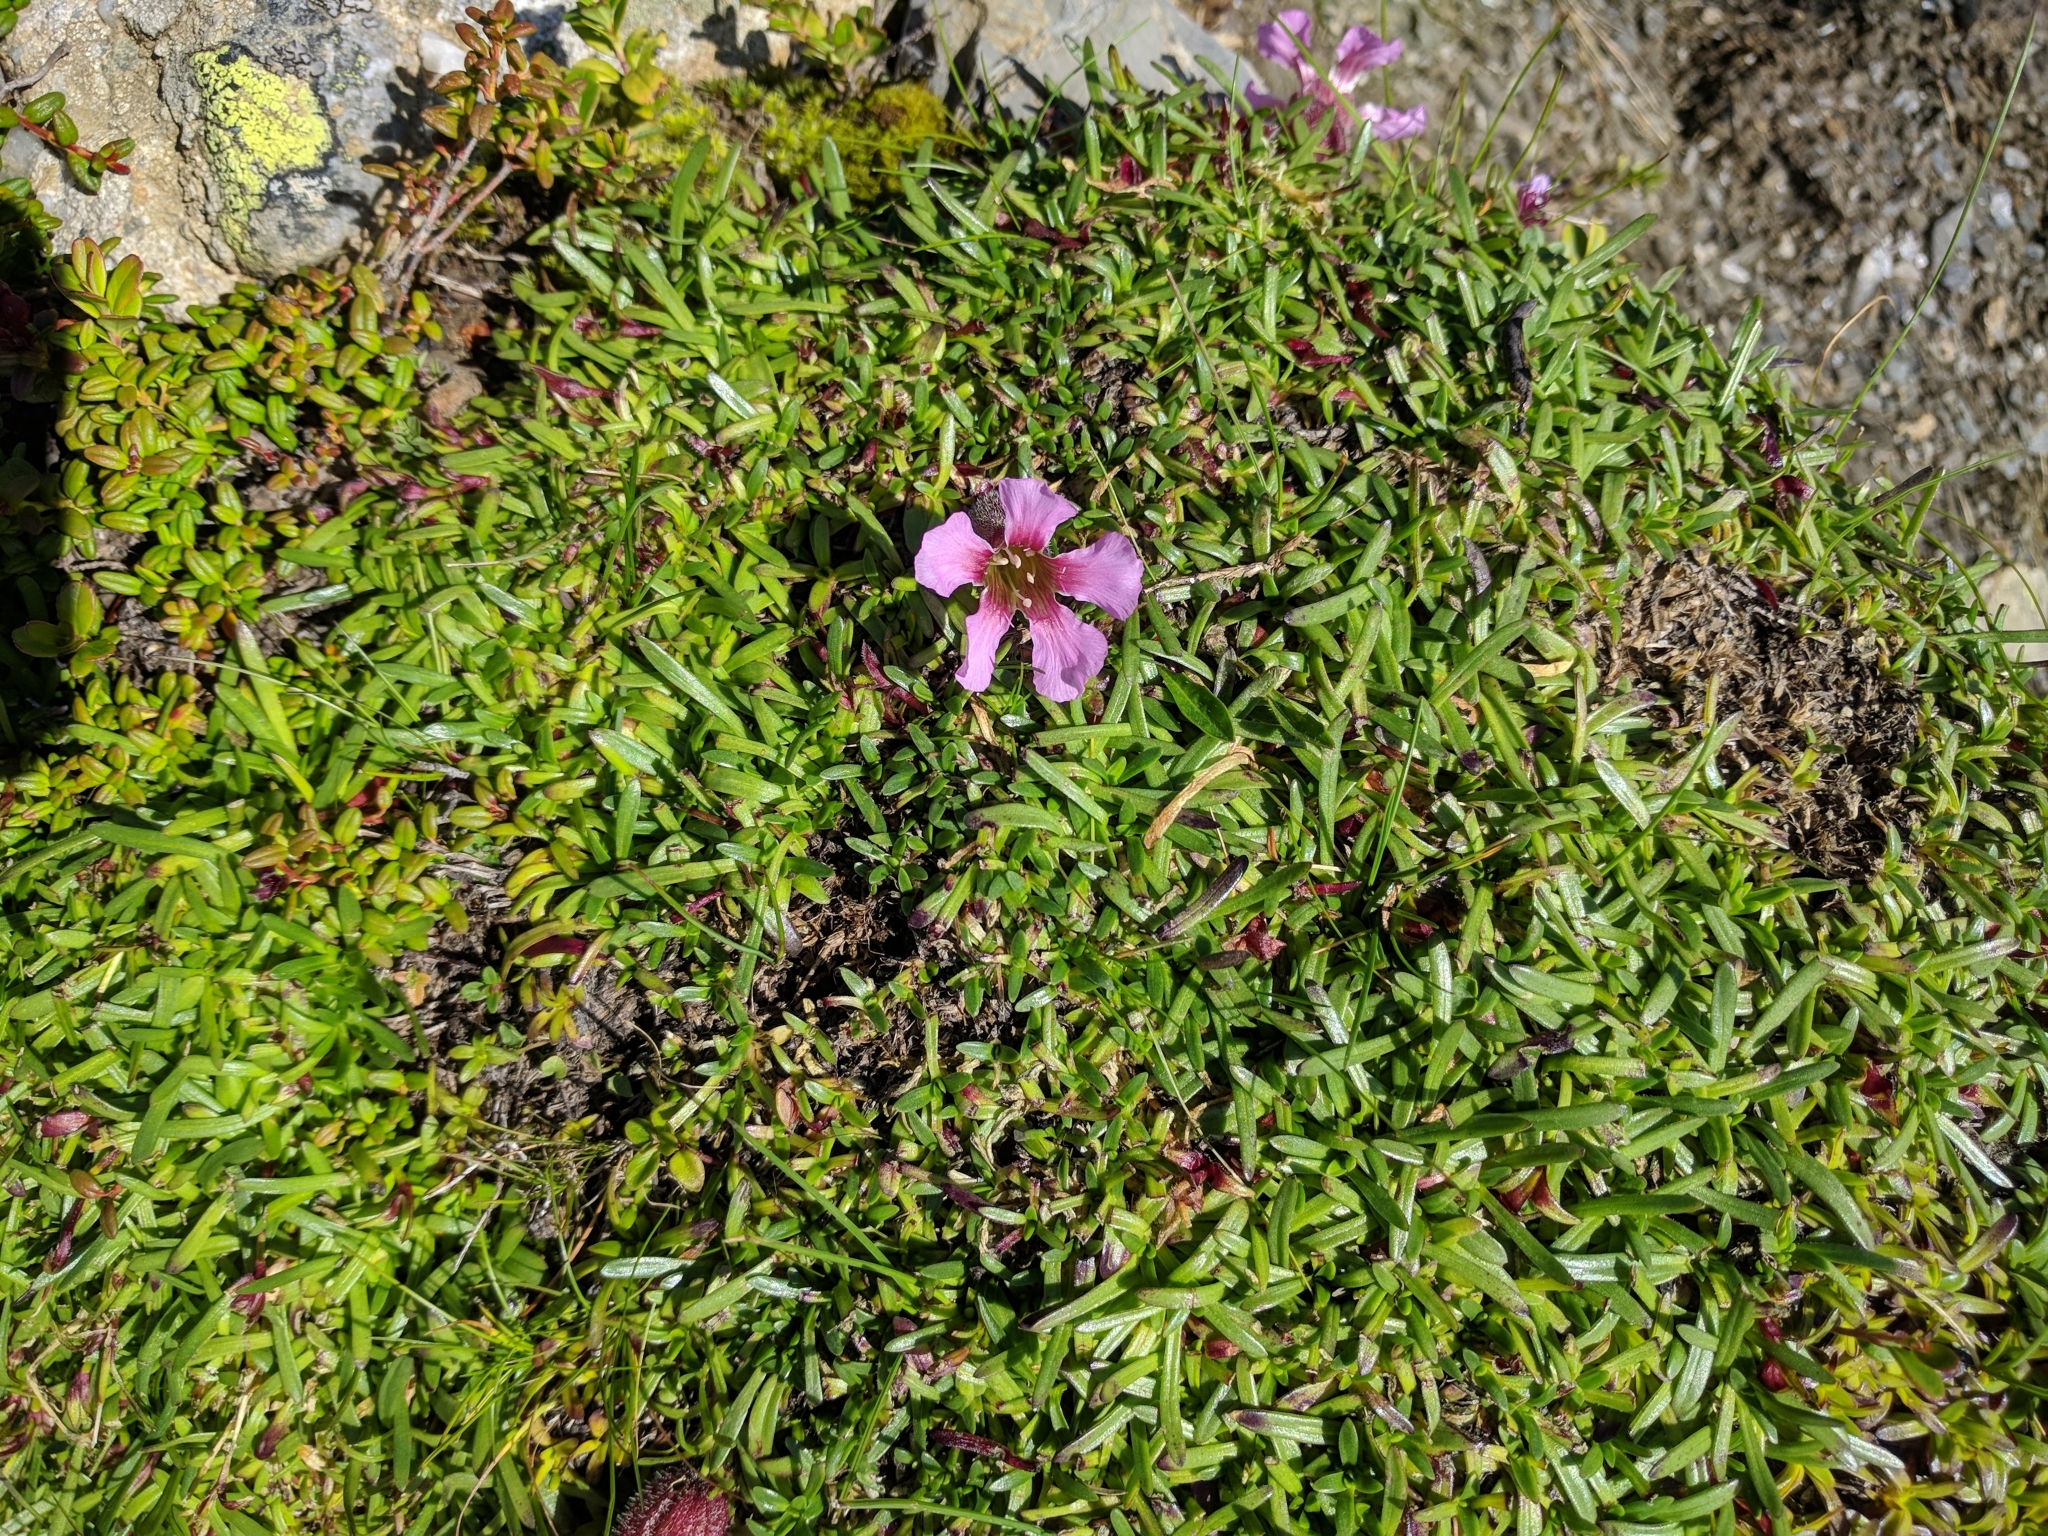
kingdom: Plantae
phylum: Tracheophyta
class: Magnoliopsida
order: Caryophyllales
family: Caryophyllaceae
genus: Saponaria
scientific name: Saponaria pumila
